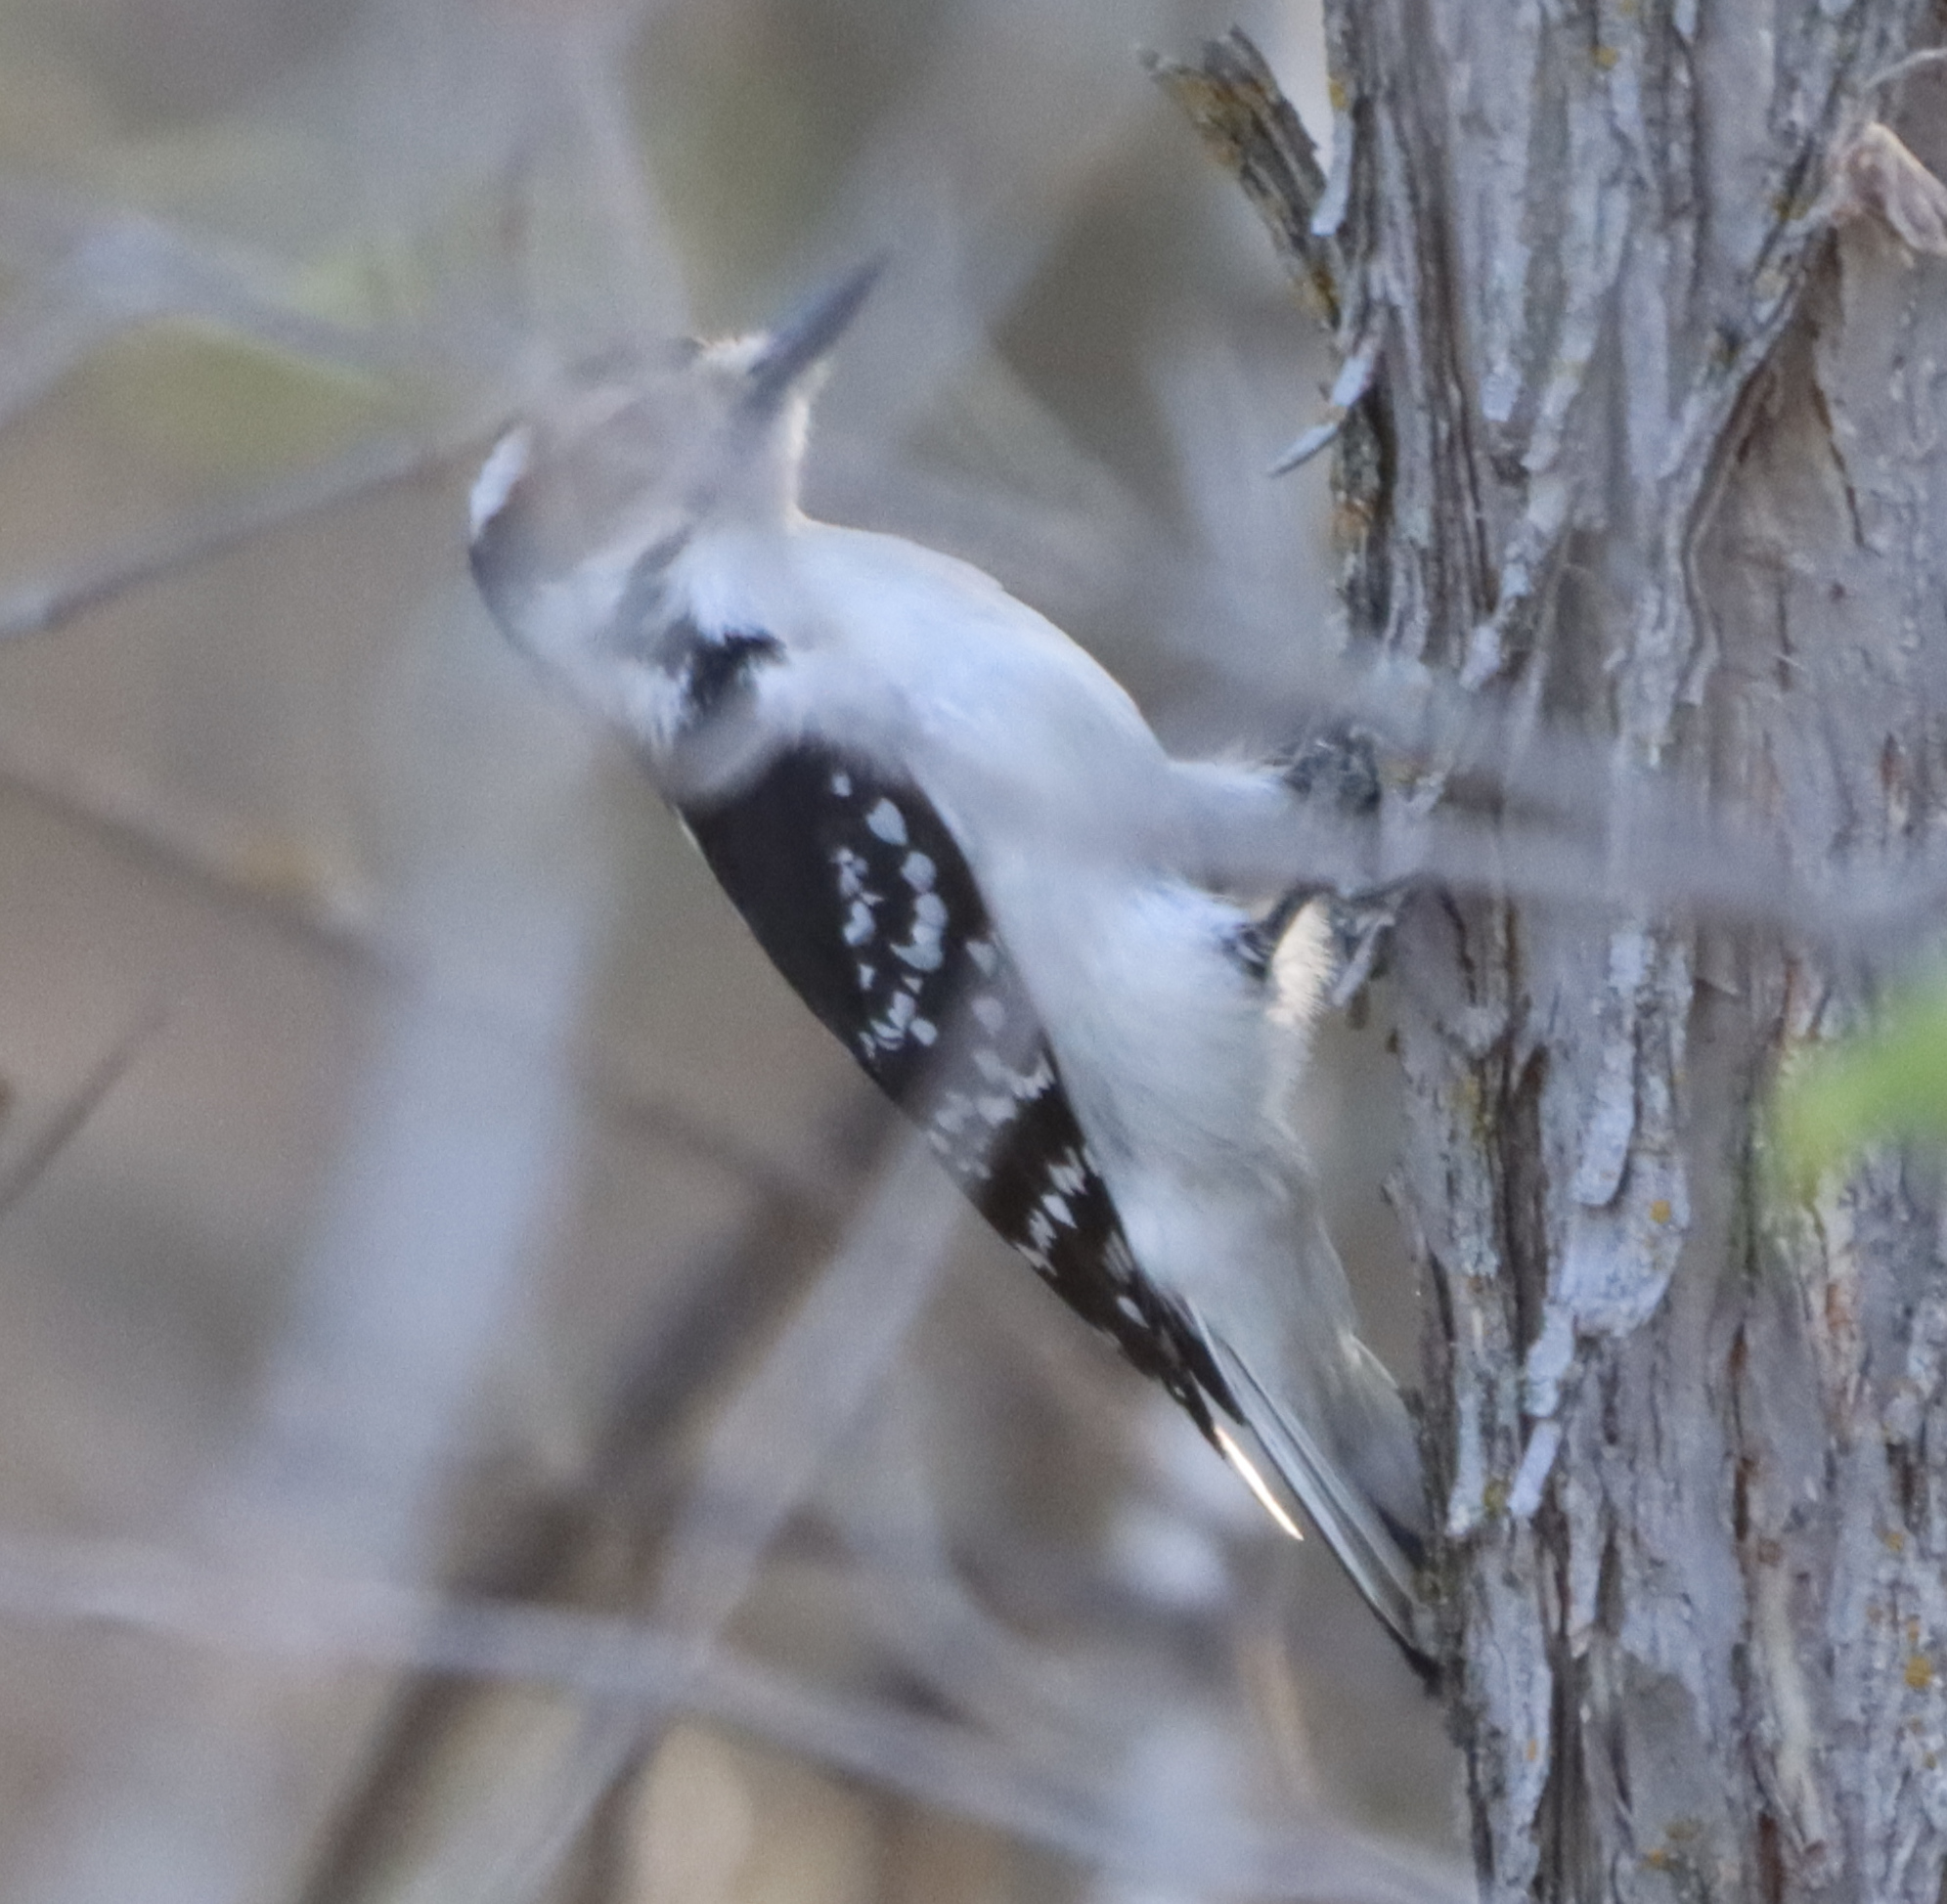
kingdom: Animalia
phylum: Chordata
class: Aves
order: Piciformes
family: Picidae
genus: Dryobates
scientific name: Dryobates pubescens
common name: Downy woodpecker
